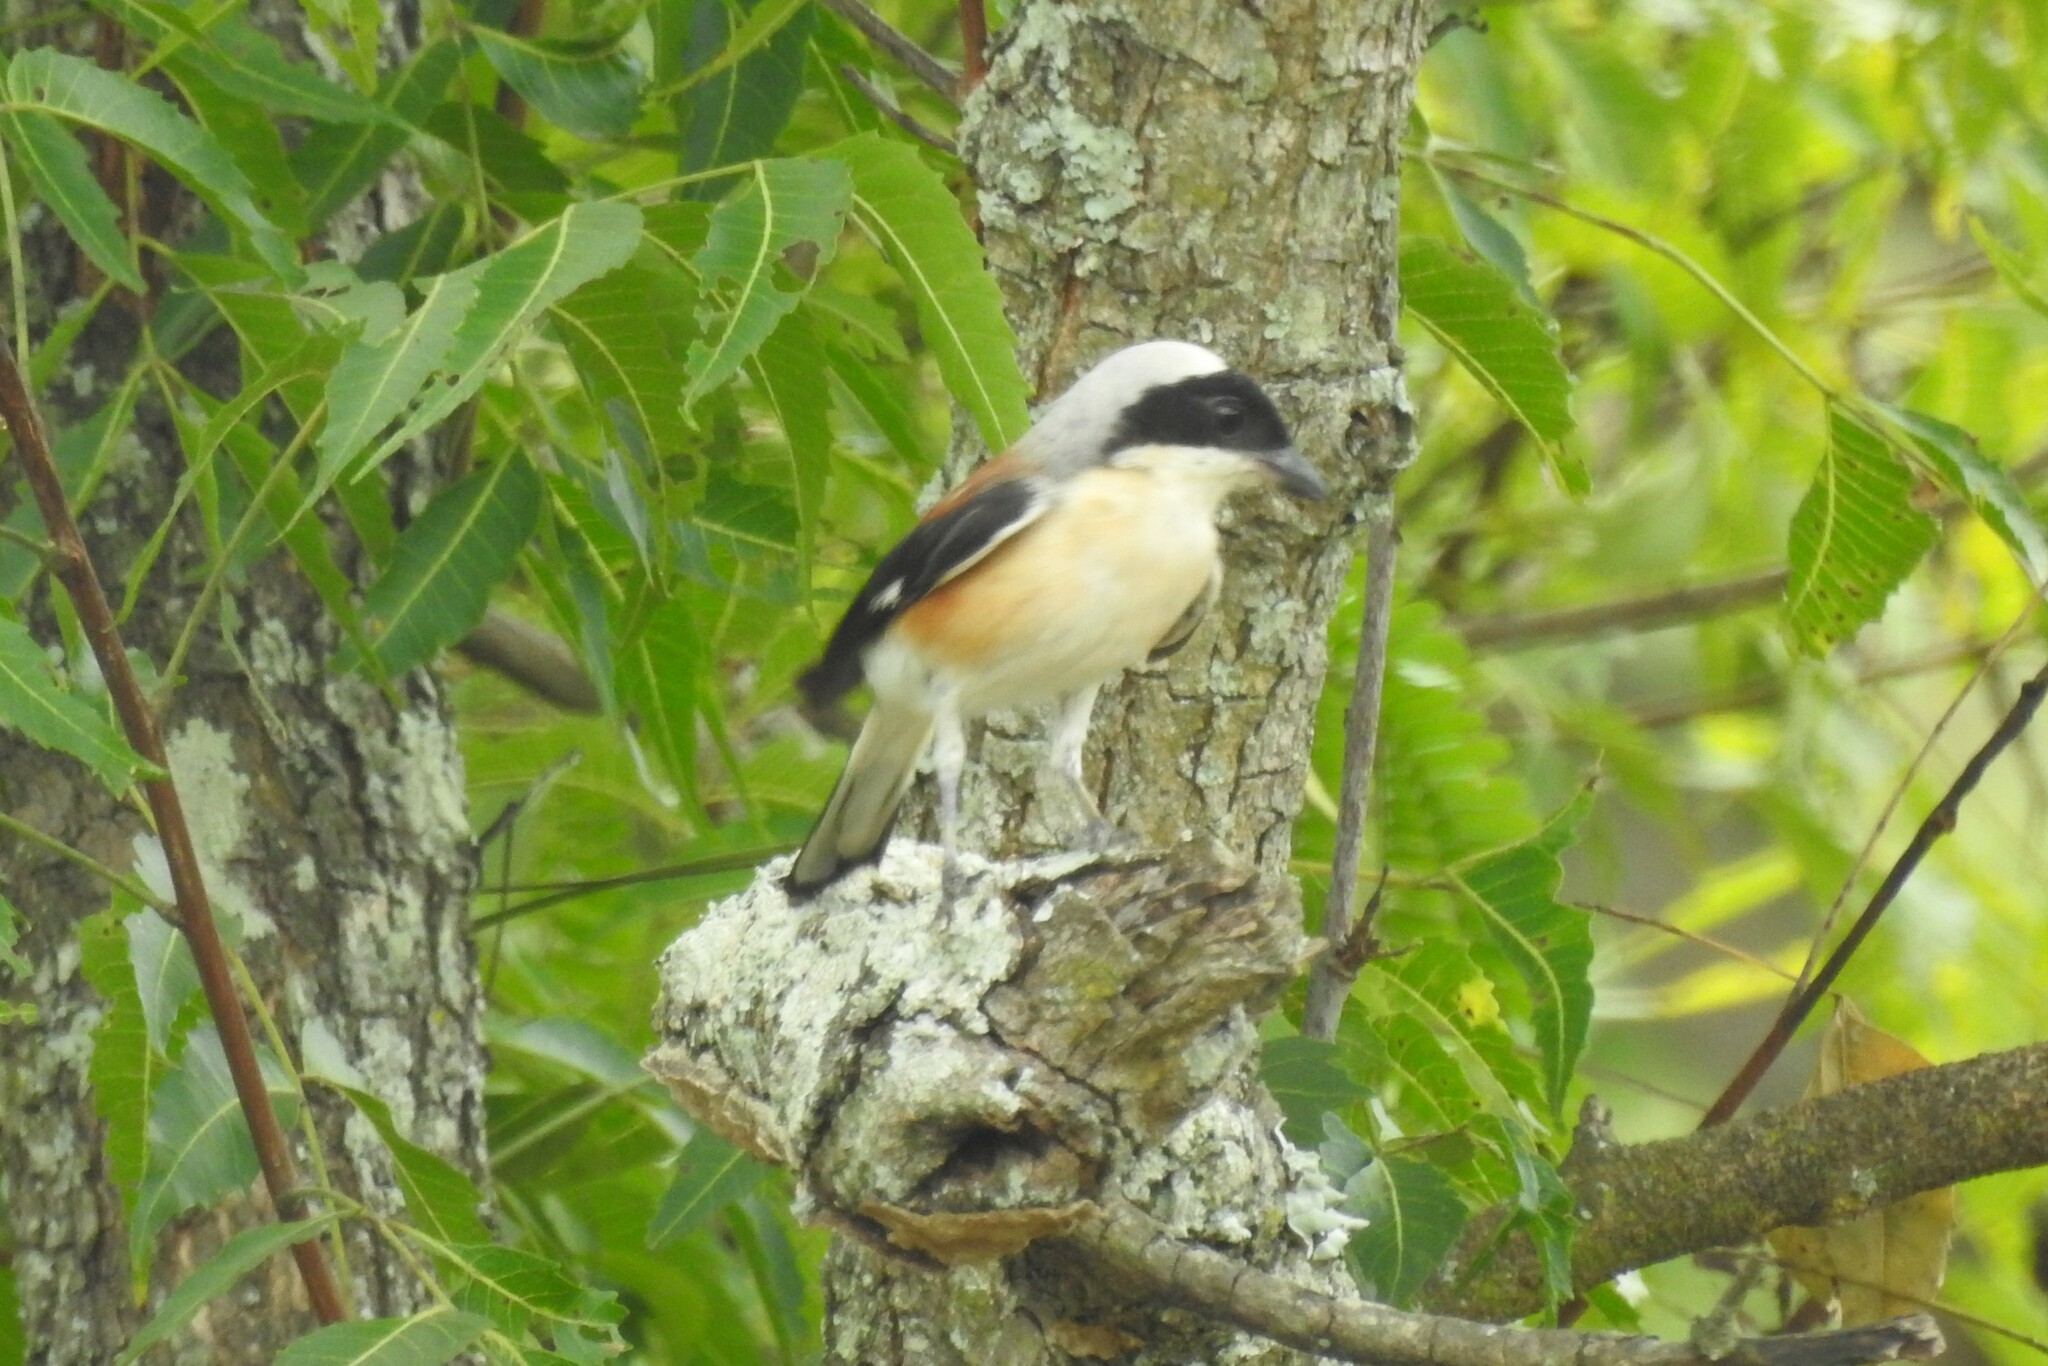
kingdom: Animalia
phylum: Chordata
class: Aves
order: Passeriformes
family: Laniidae
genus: Lanius
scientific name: Lanius vittatus
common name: Bay-backed shrike
